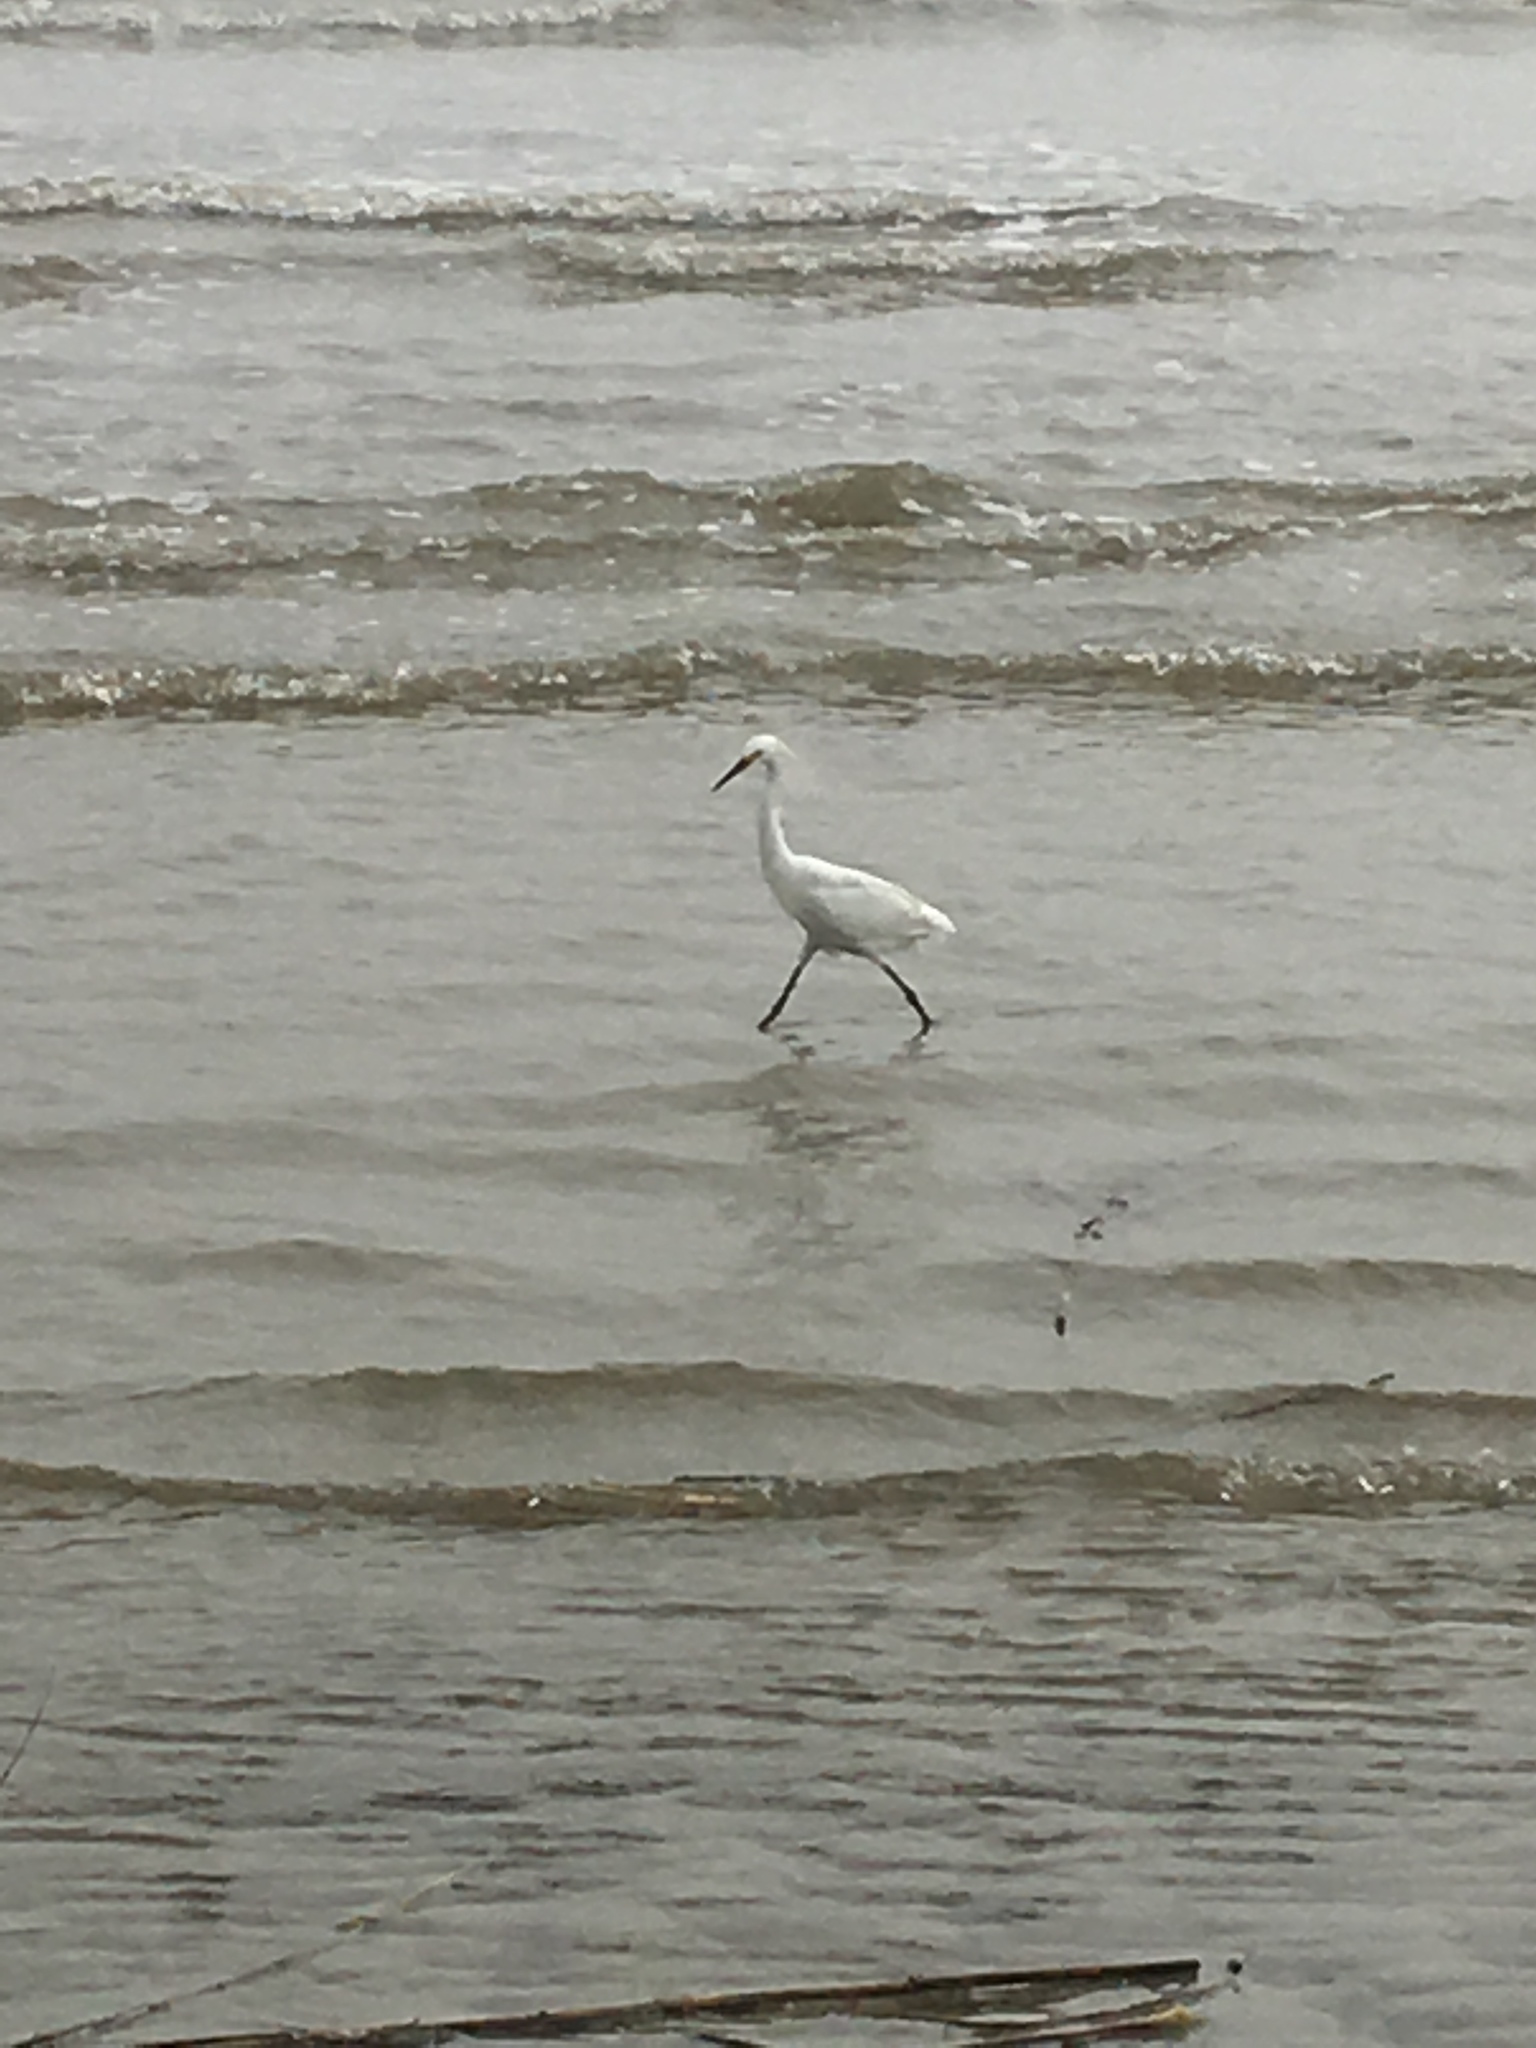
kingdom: Animalia
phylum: Chordata
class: Aves
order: Pelecaniformes
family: Ardeidae
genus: Egretta
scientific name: Egretta thula
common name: Snowy egret
